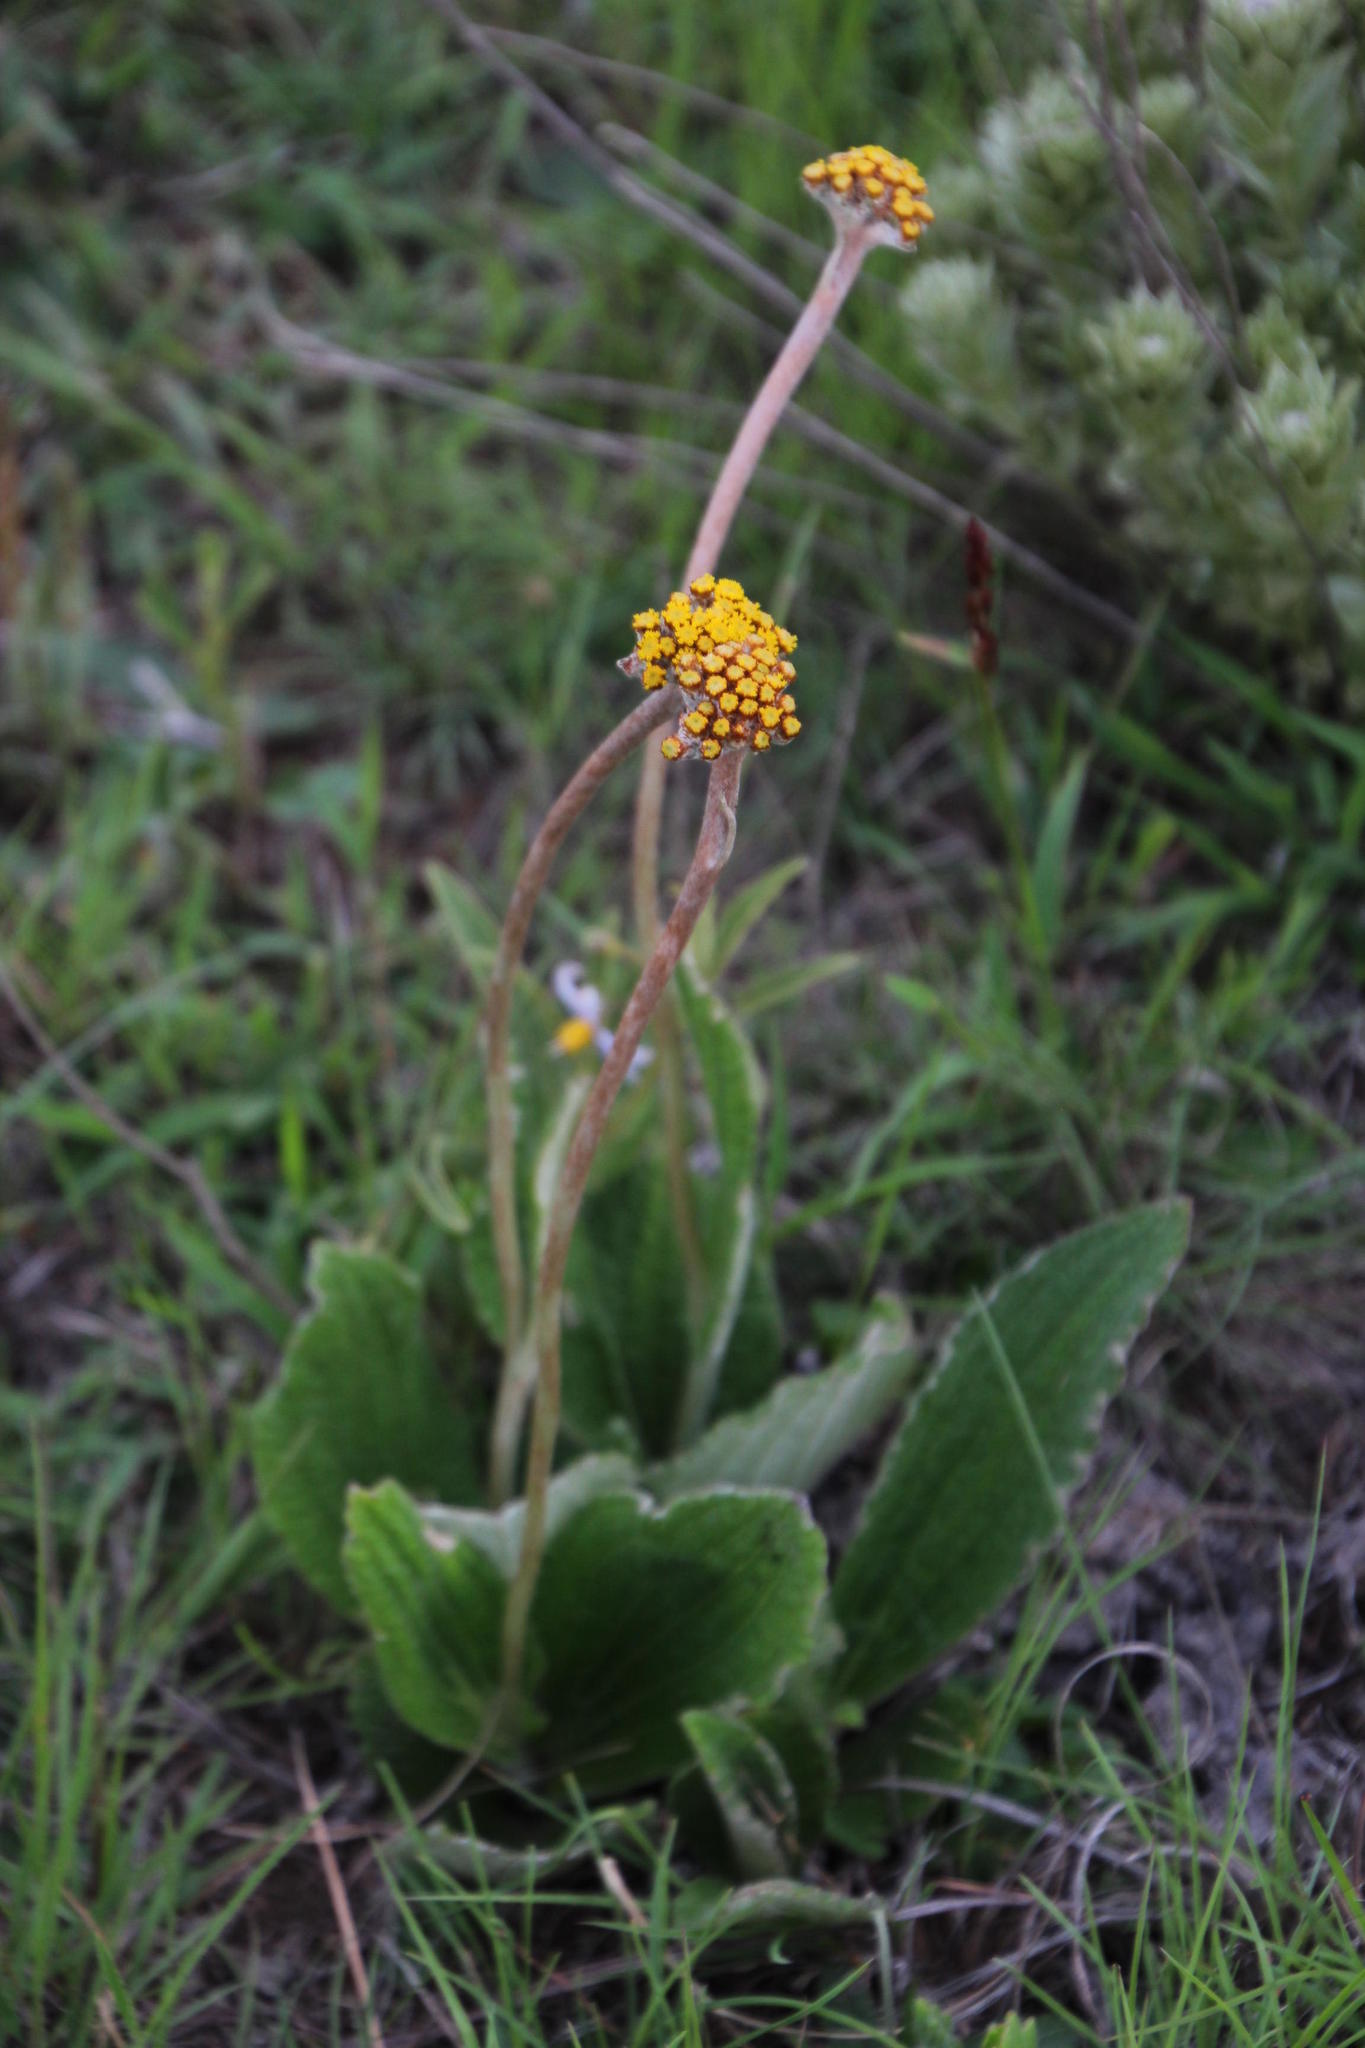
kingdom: Plantae
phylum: Tracheophyta
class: Magnoliopsida
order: Asterales
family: Asteraceae
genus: Helichrysum
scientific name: Helichrysum nudifolium
